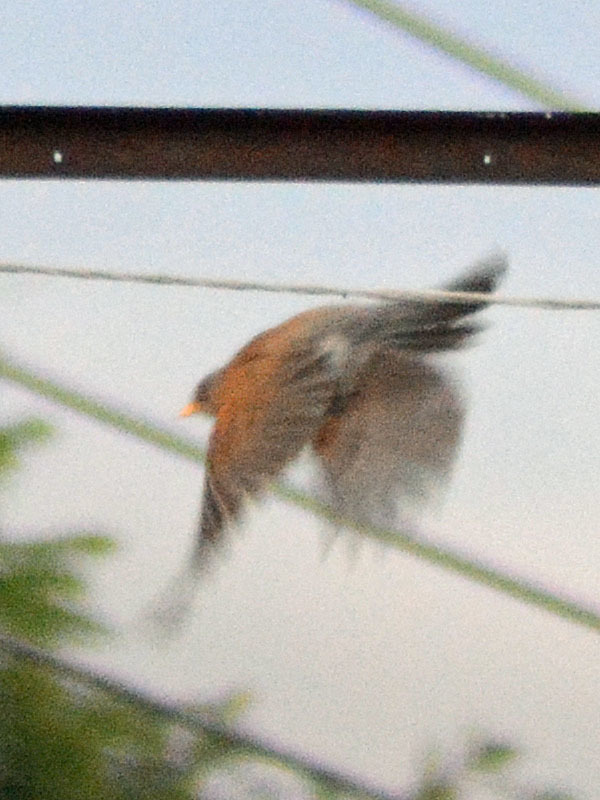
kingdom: Animalia
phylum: Chordata
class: Aves
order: Passeriformes
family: Turdidae
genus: Turdus
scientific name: Turdus rufopalliatus
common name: Rufous-backed robin
